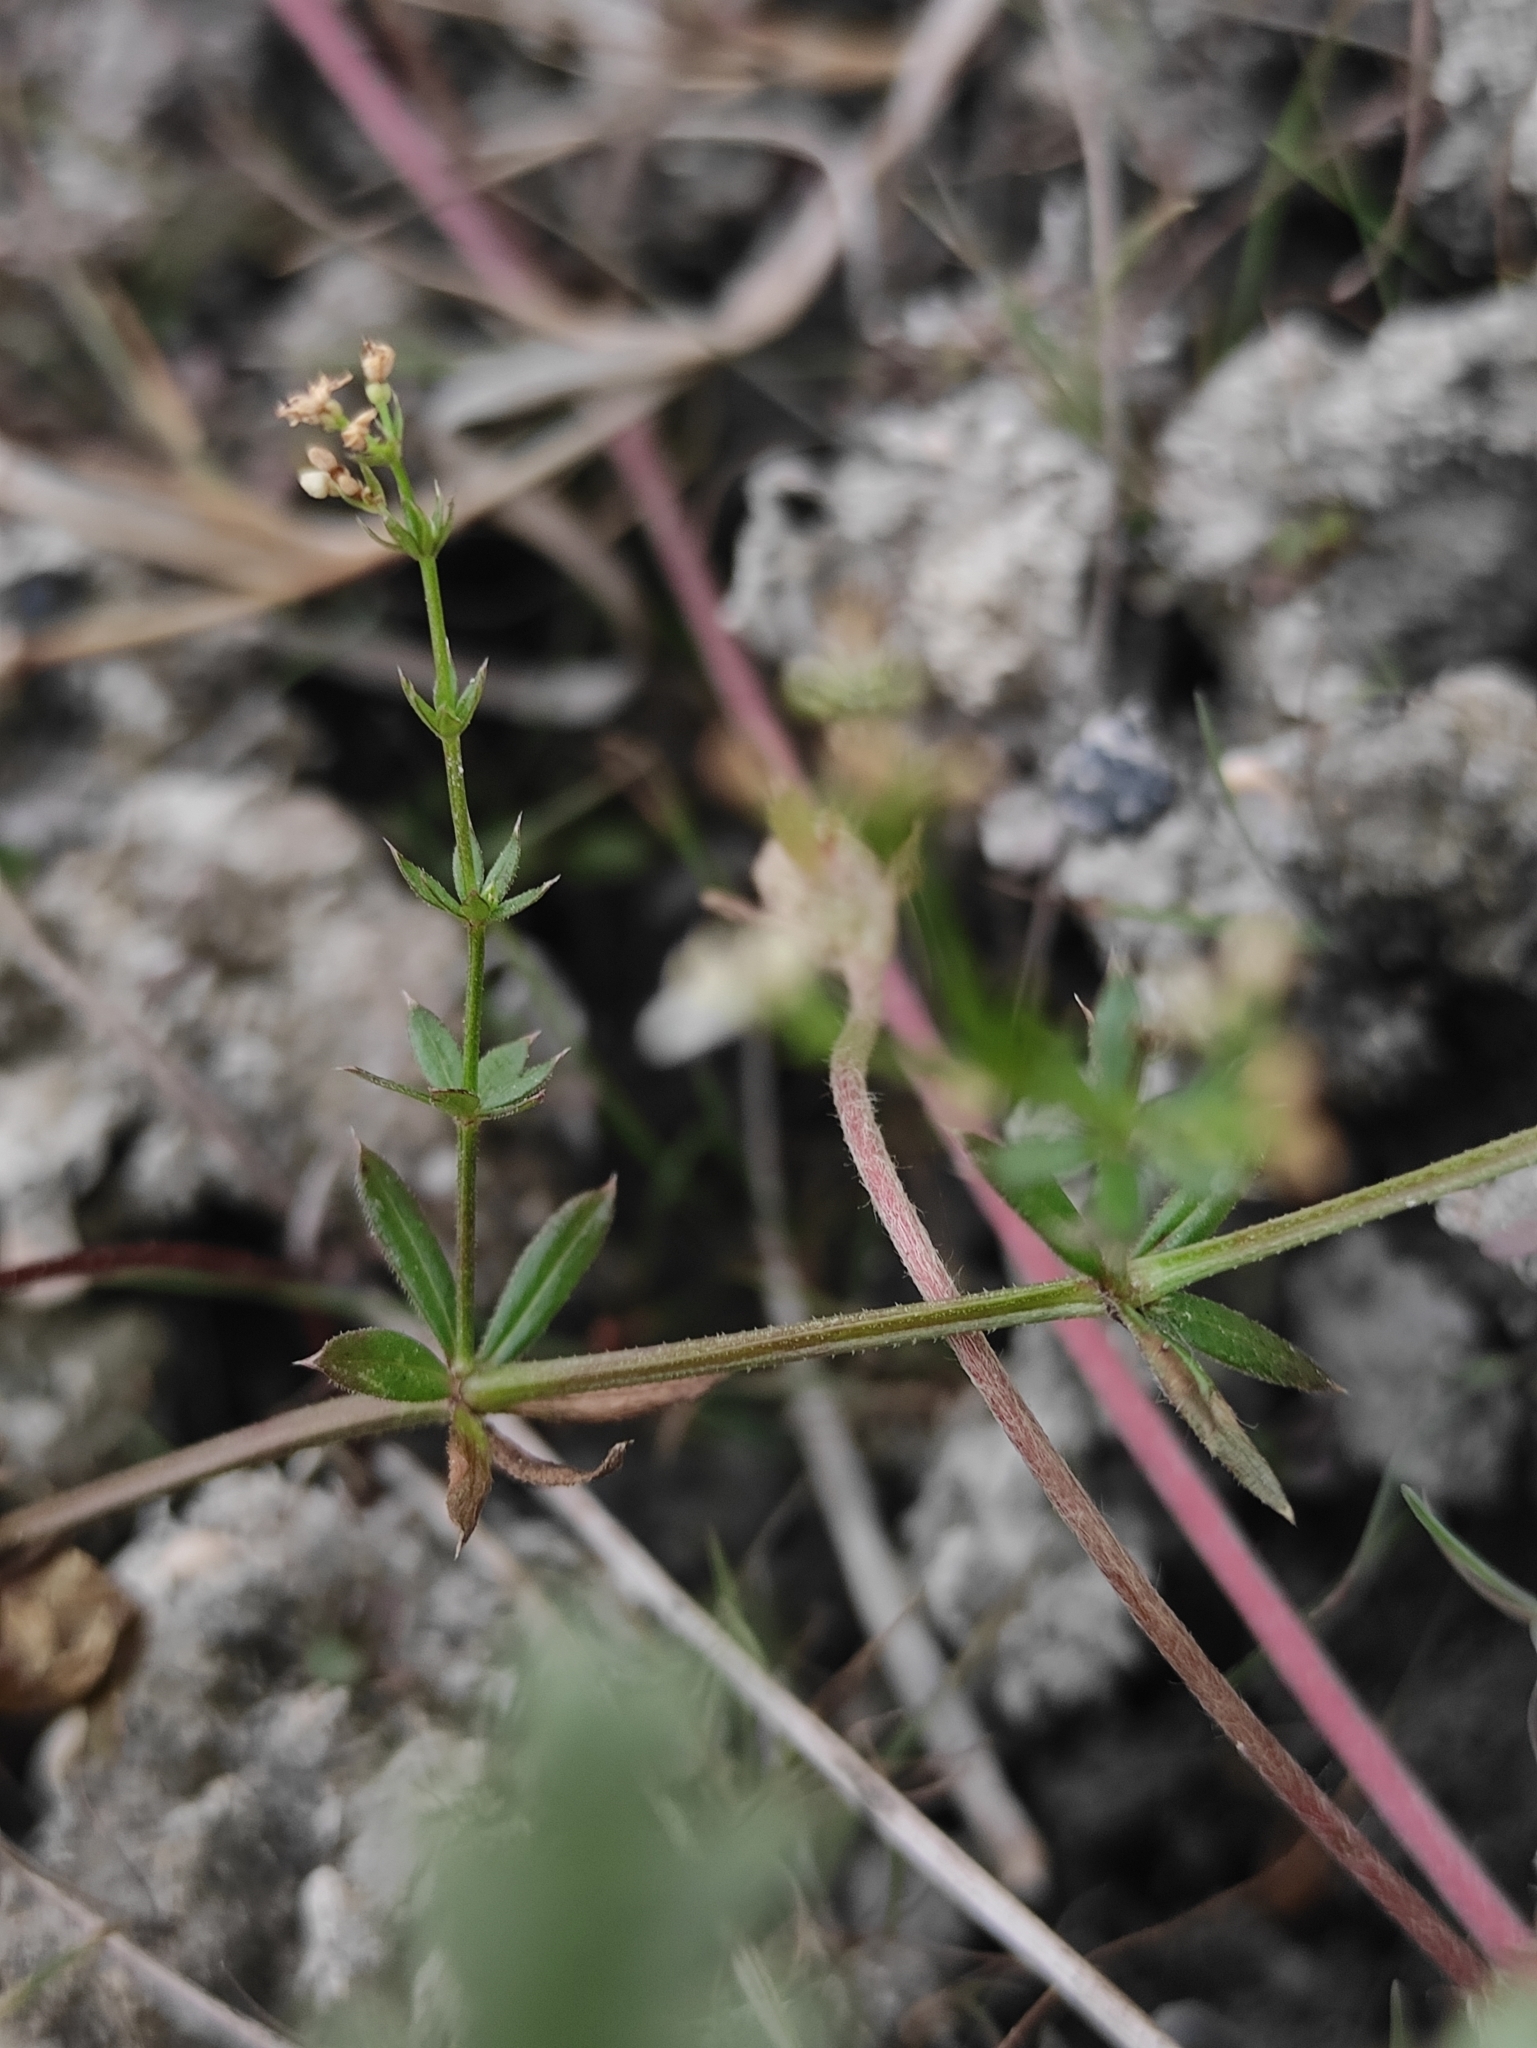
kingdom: Plantae
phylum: Tracheophyta
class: Magnoliopsida
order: Gentianales
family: Rubiaceae
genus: Galium
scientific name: Galium uliginosum
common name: Fen bedstraw
